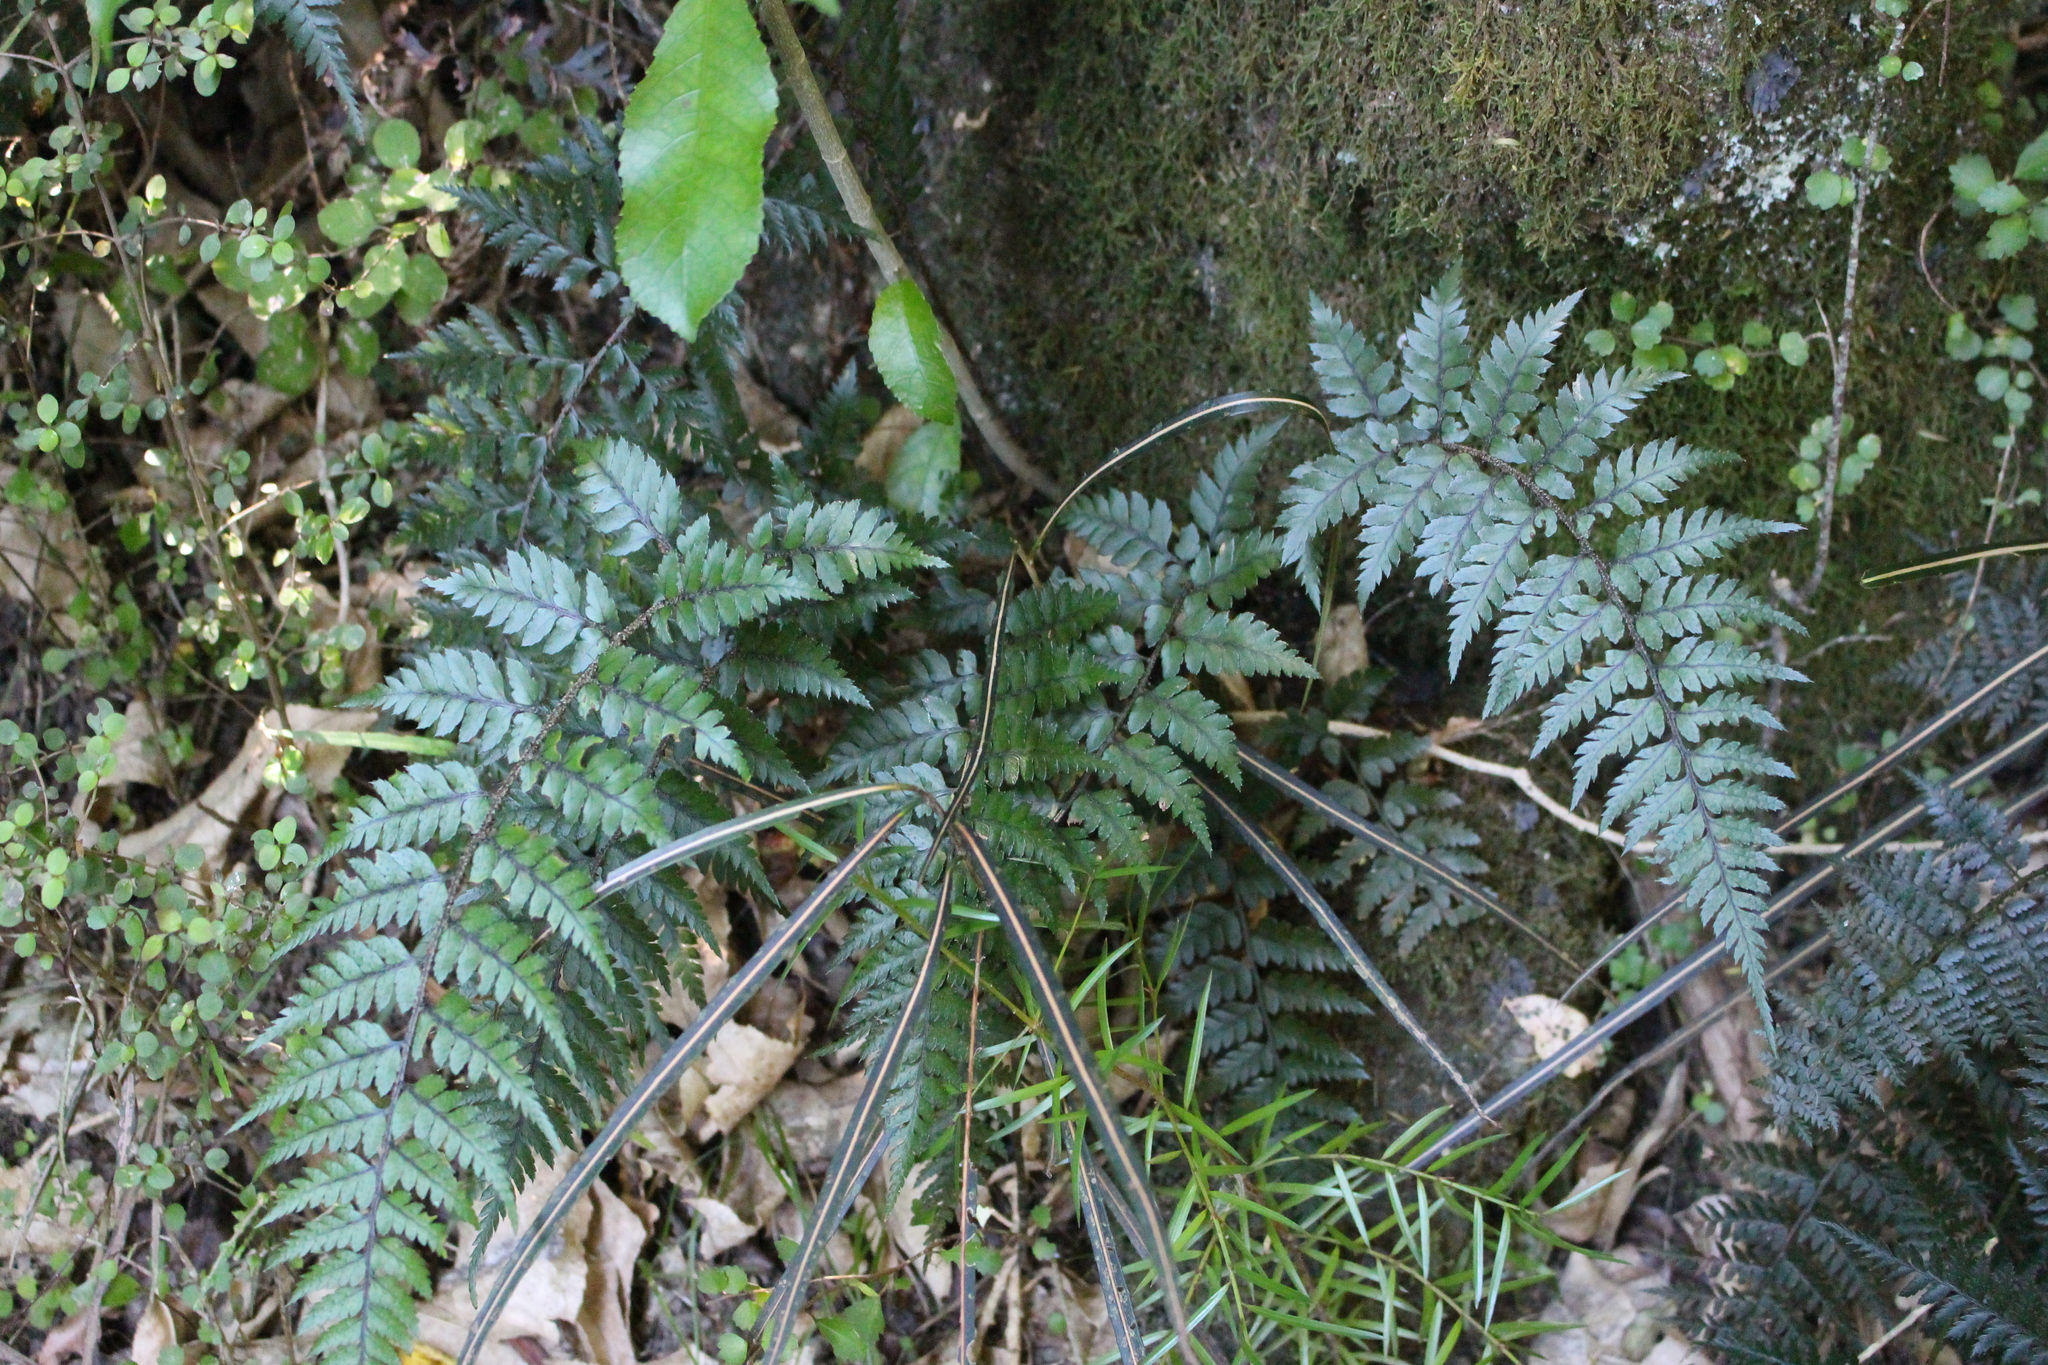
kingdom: Plantae
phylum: Tracheophyta
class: Polypodiopsida
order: Polypodiales
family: Dryopteridaceae
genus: Polystichum
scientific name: Polystichum neozelandicum
